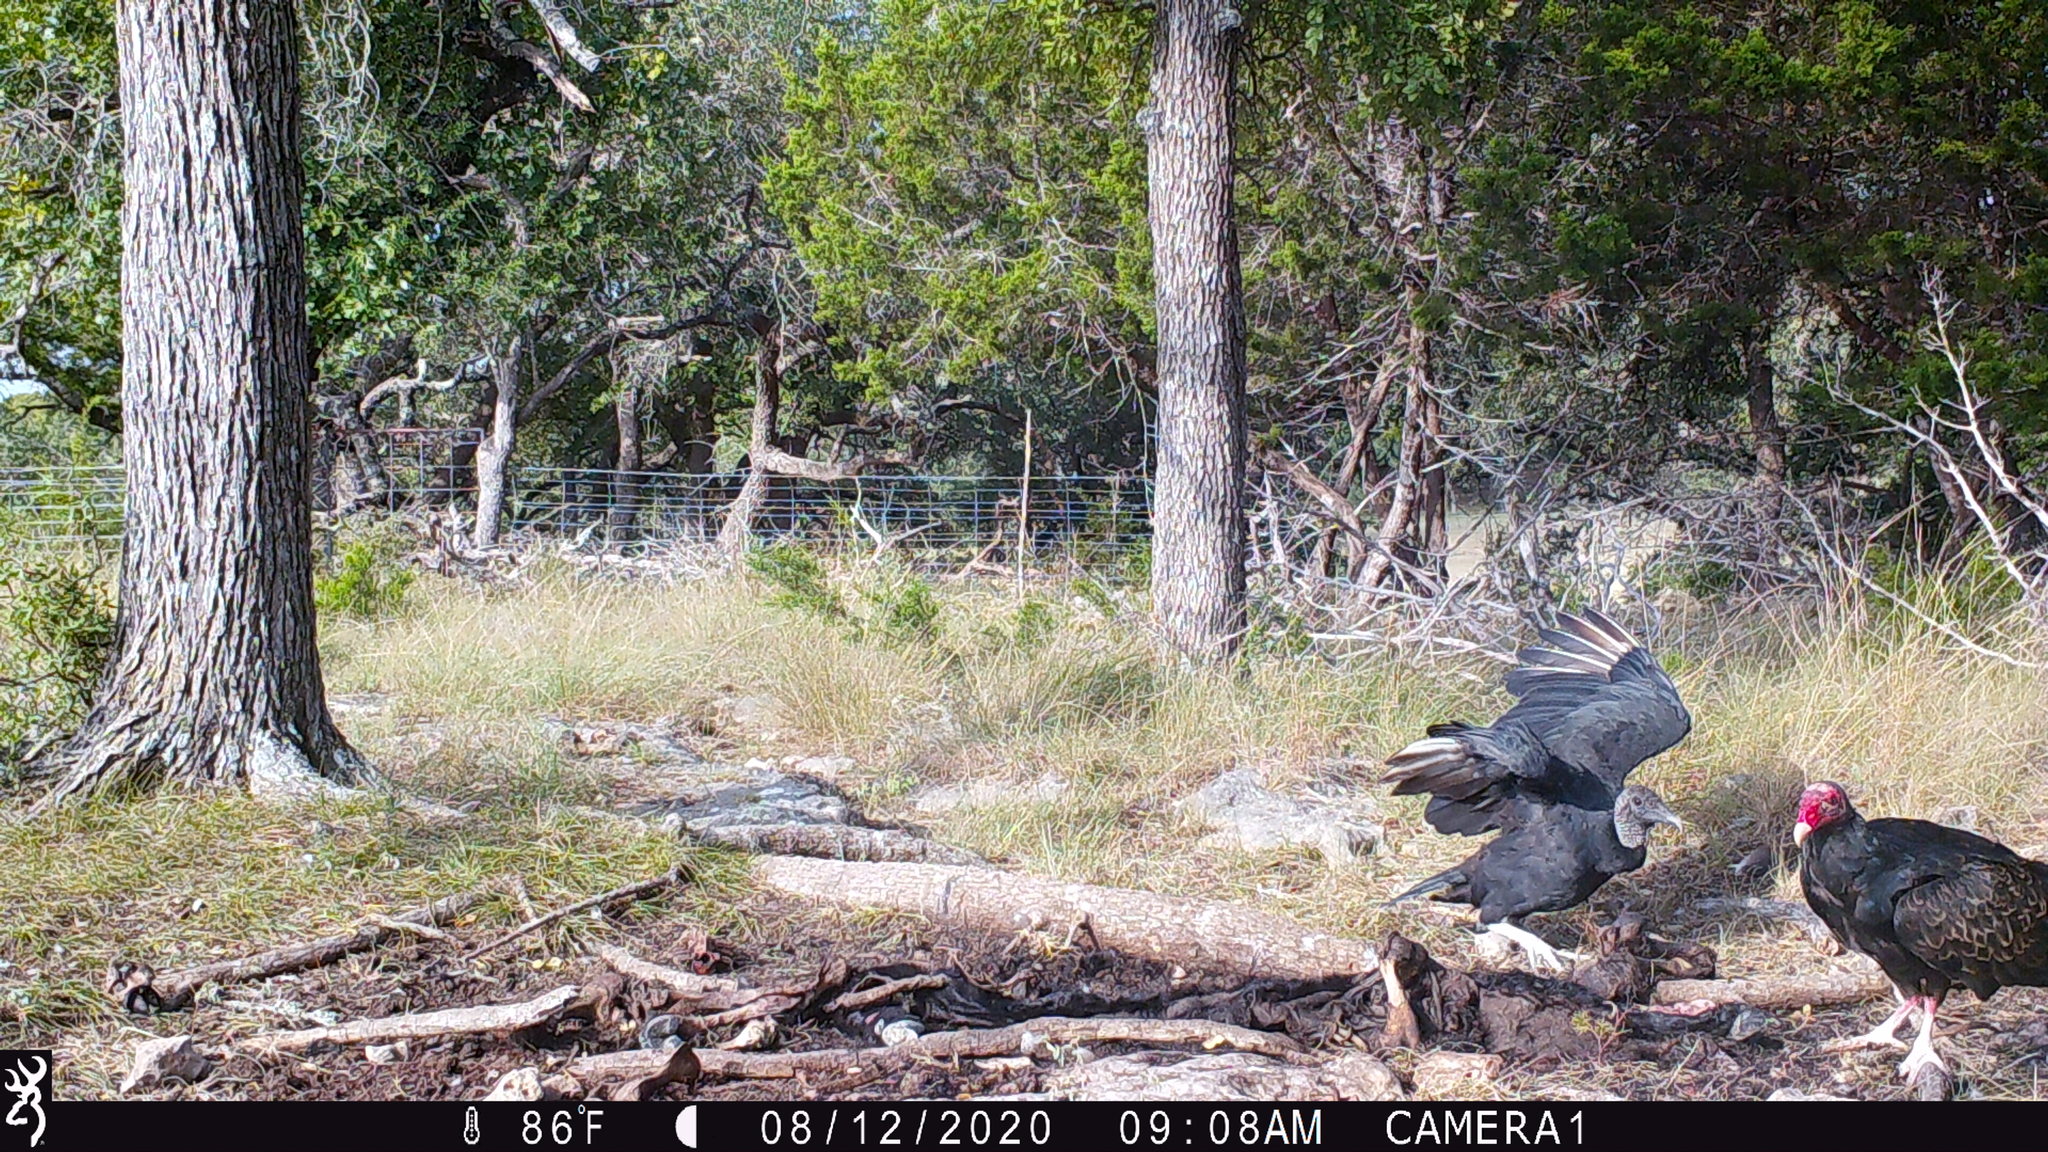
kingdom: Animalia
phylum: Chordata
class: Aves
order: Accipitriformes
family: Cathartidae
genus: Coragyps
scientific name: Coragyps atratus
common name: Black vulture
